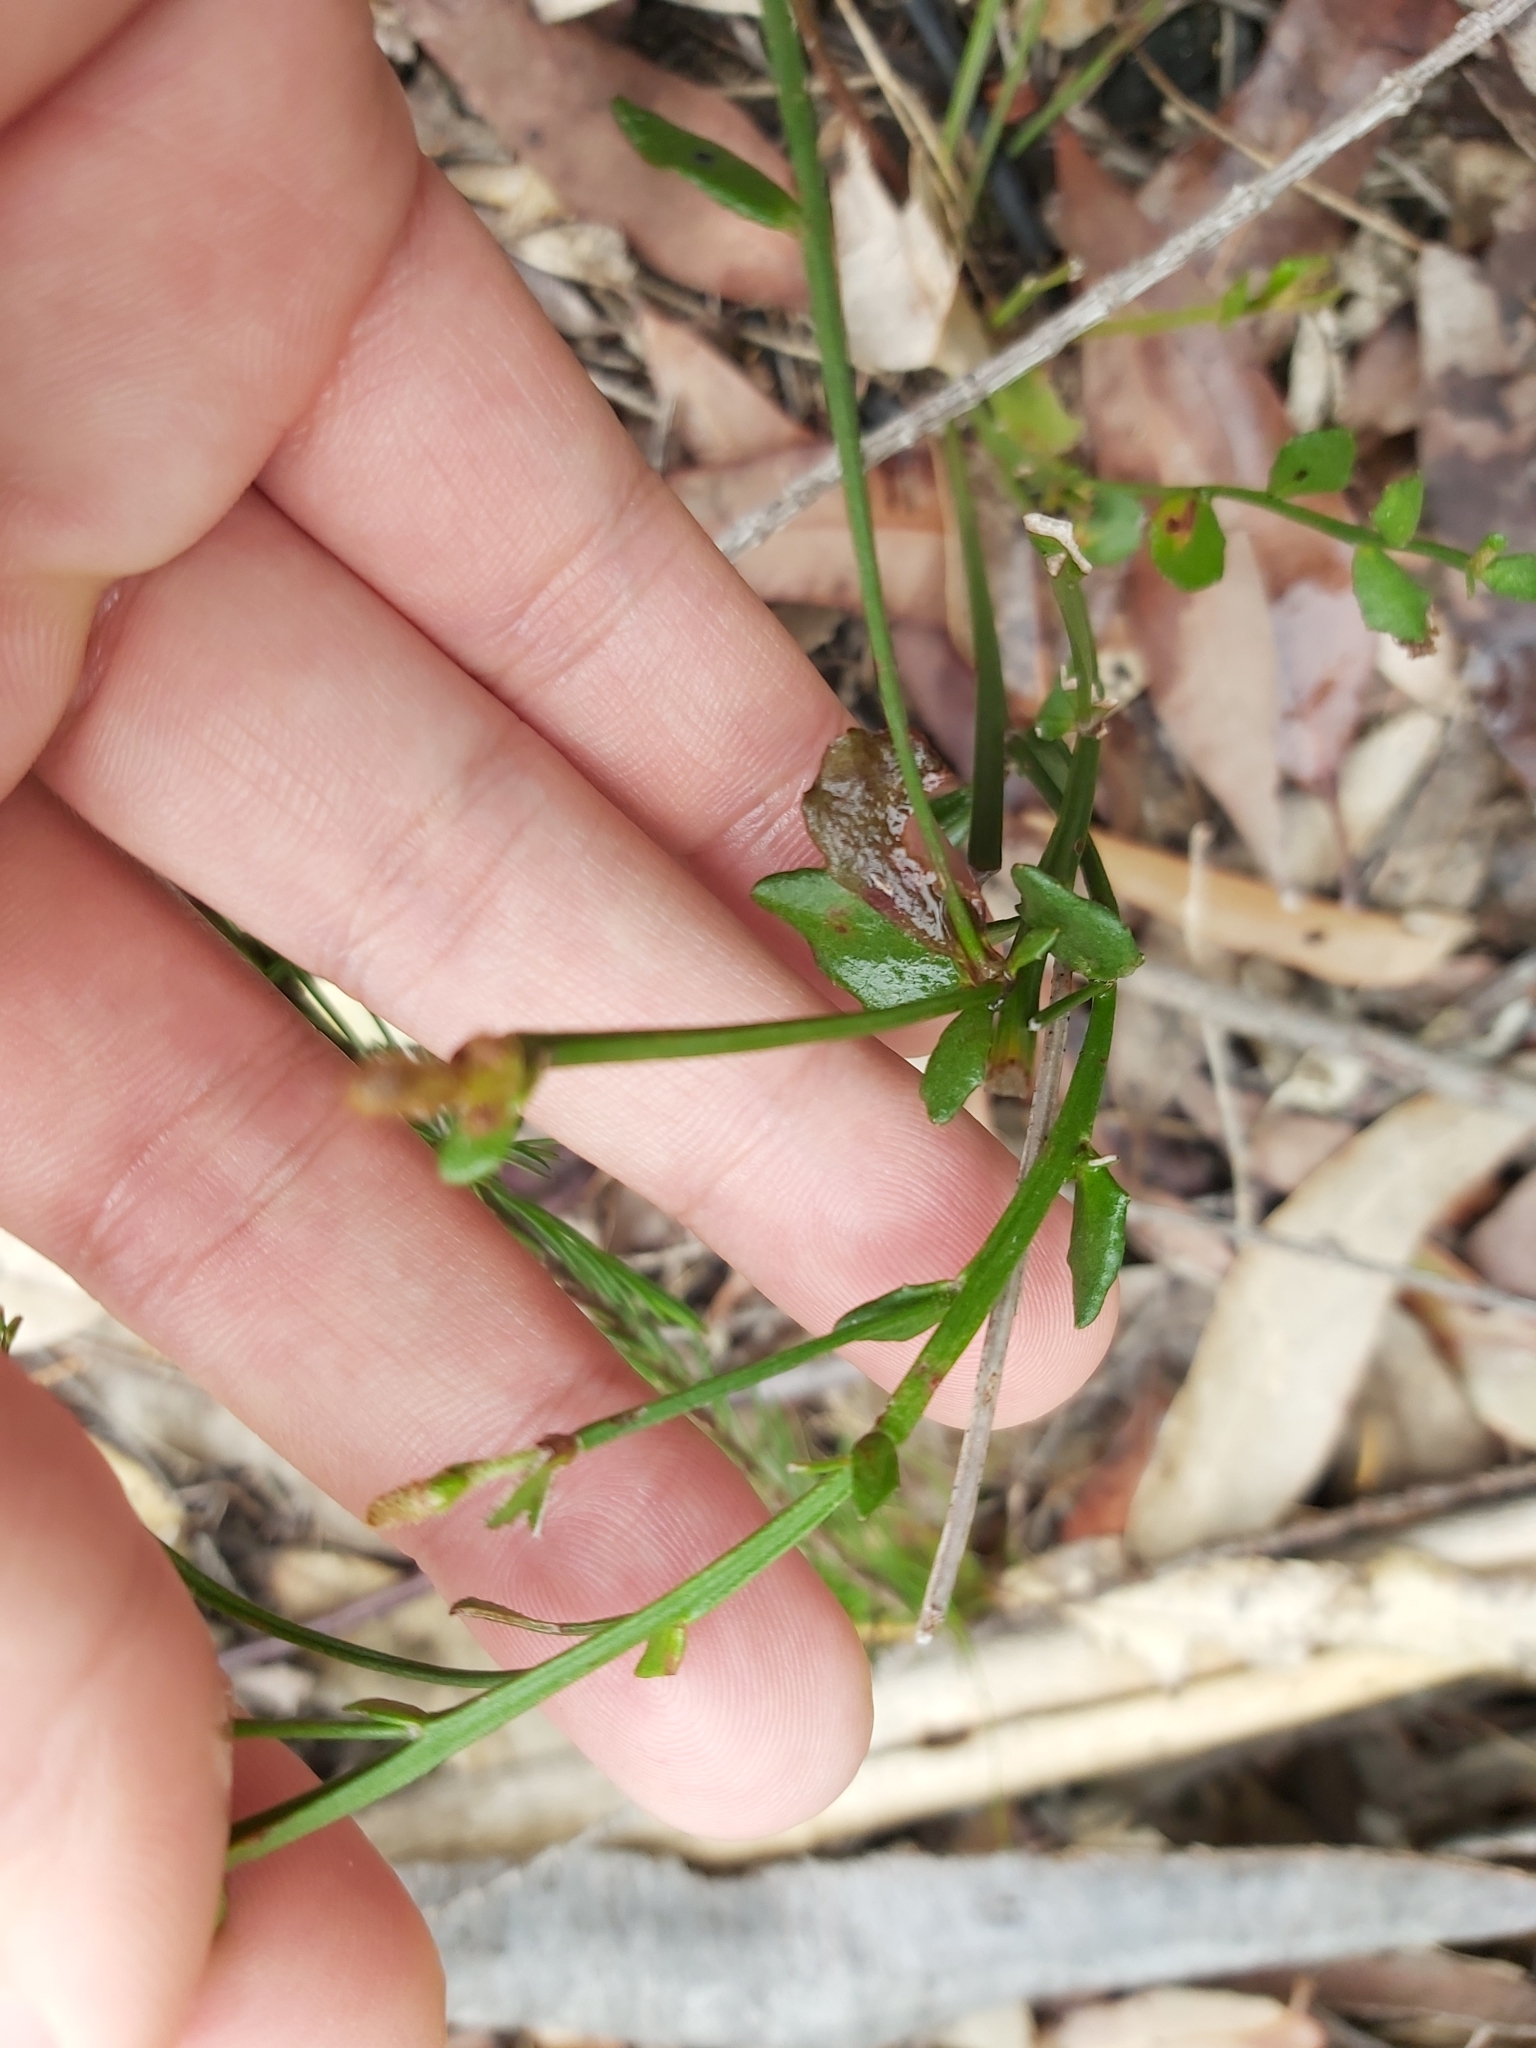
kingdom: Plantae
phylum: Tracheophyta
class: Magnoliopsida
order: Asterales
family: Goodeniaceae
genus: Dampiera
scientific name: Dampiera stricta
